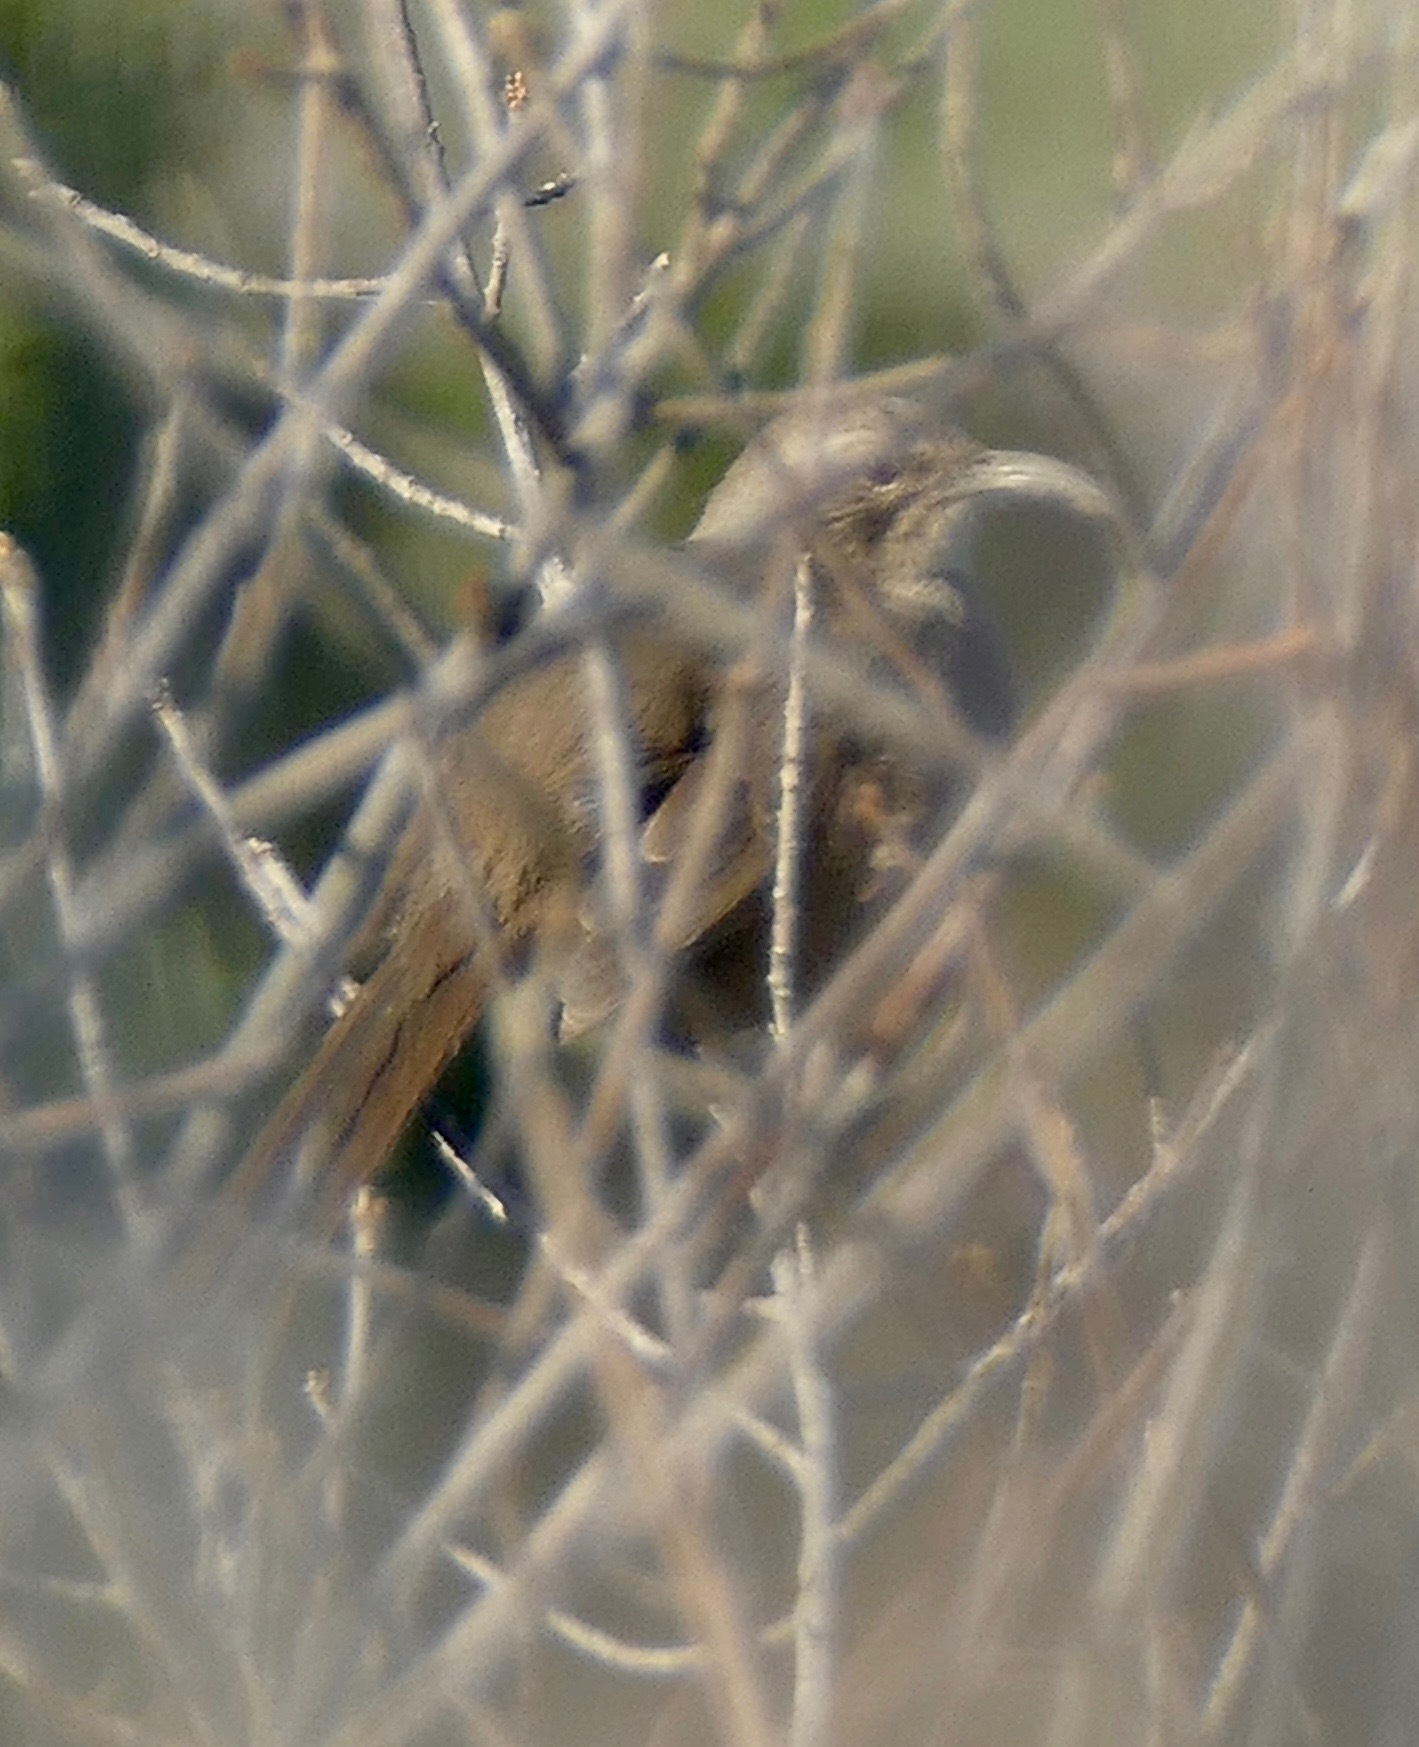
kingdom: Animalia
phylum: Chordata
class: Aves
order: Passeriformes
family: Mimidae
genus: Toxostoma
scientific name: Toxostoma redivivum
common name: California thrasher
